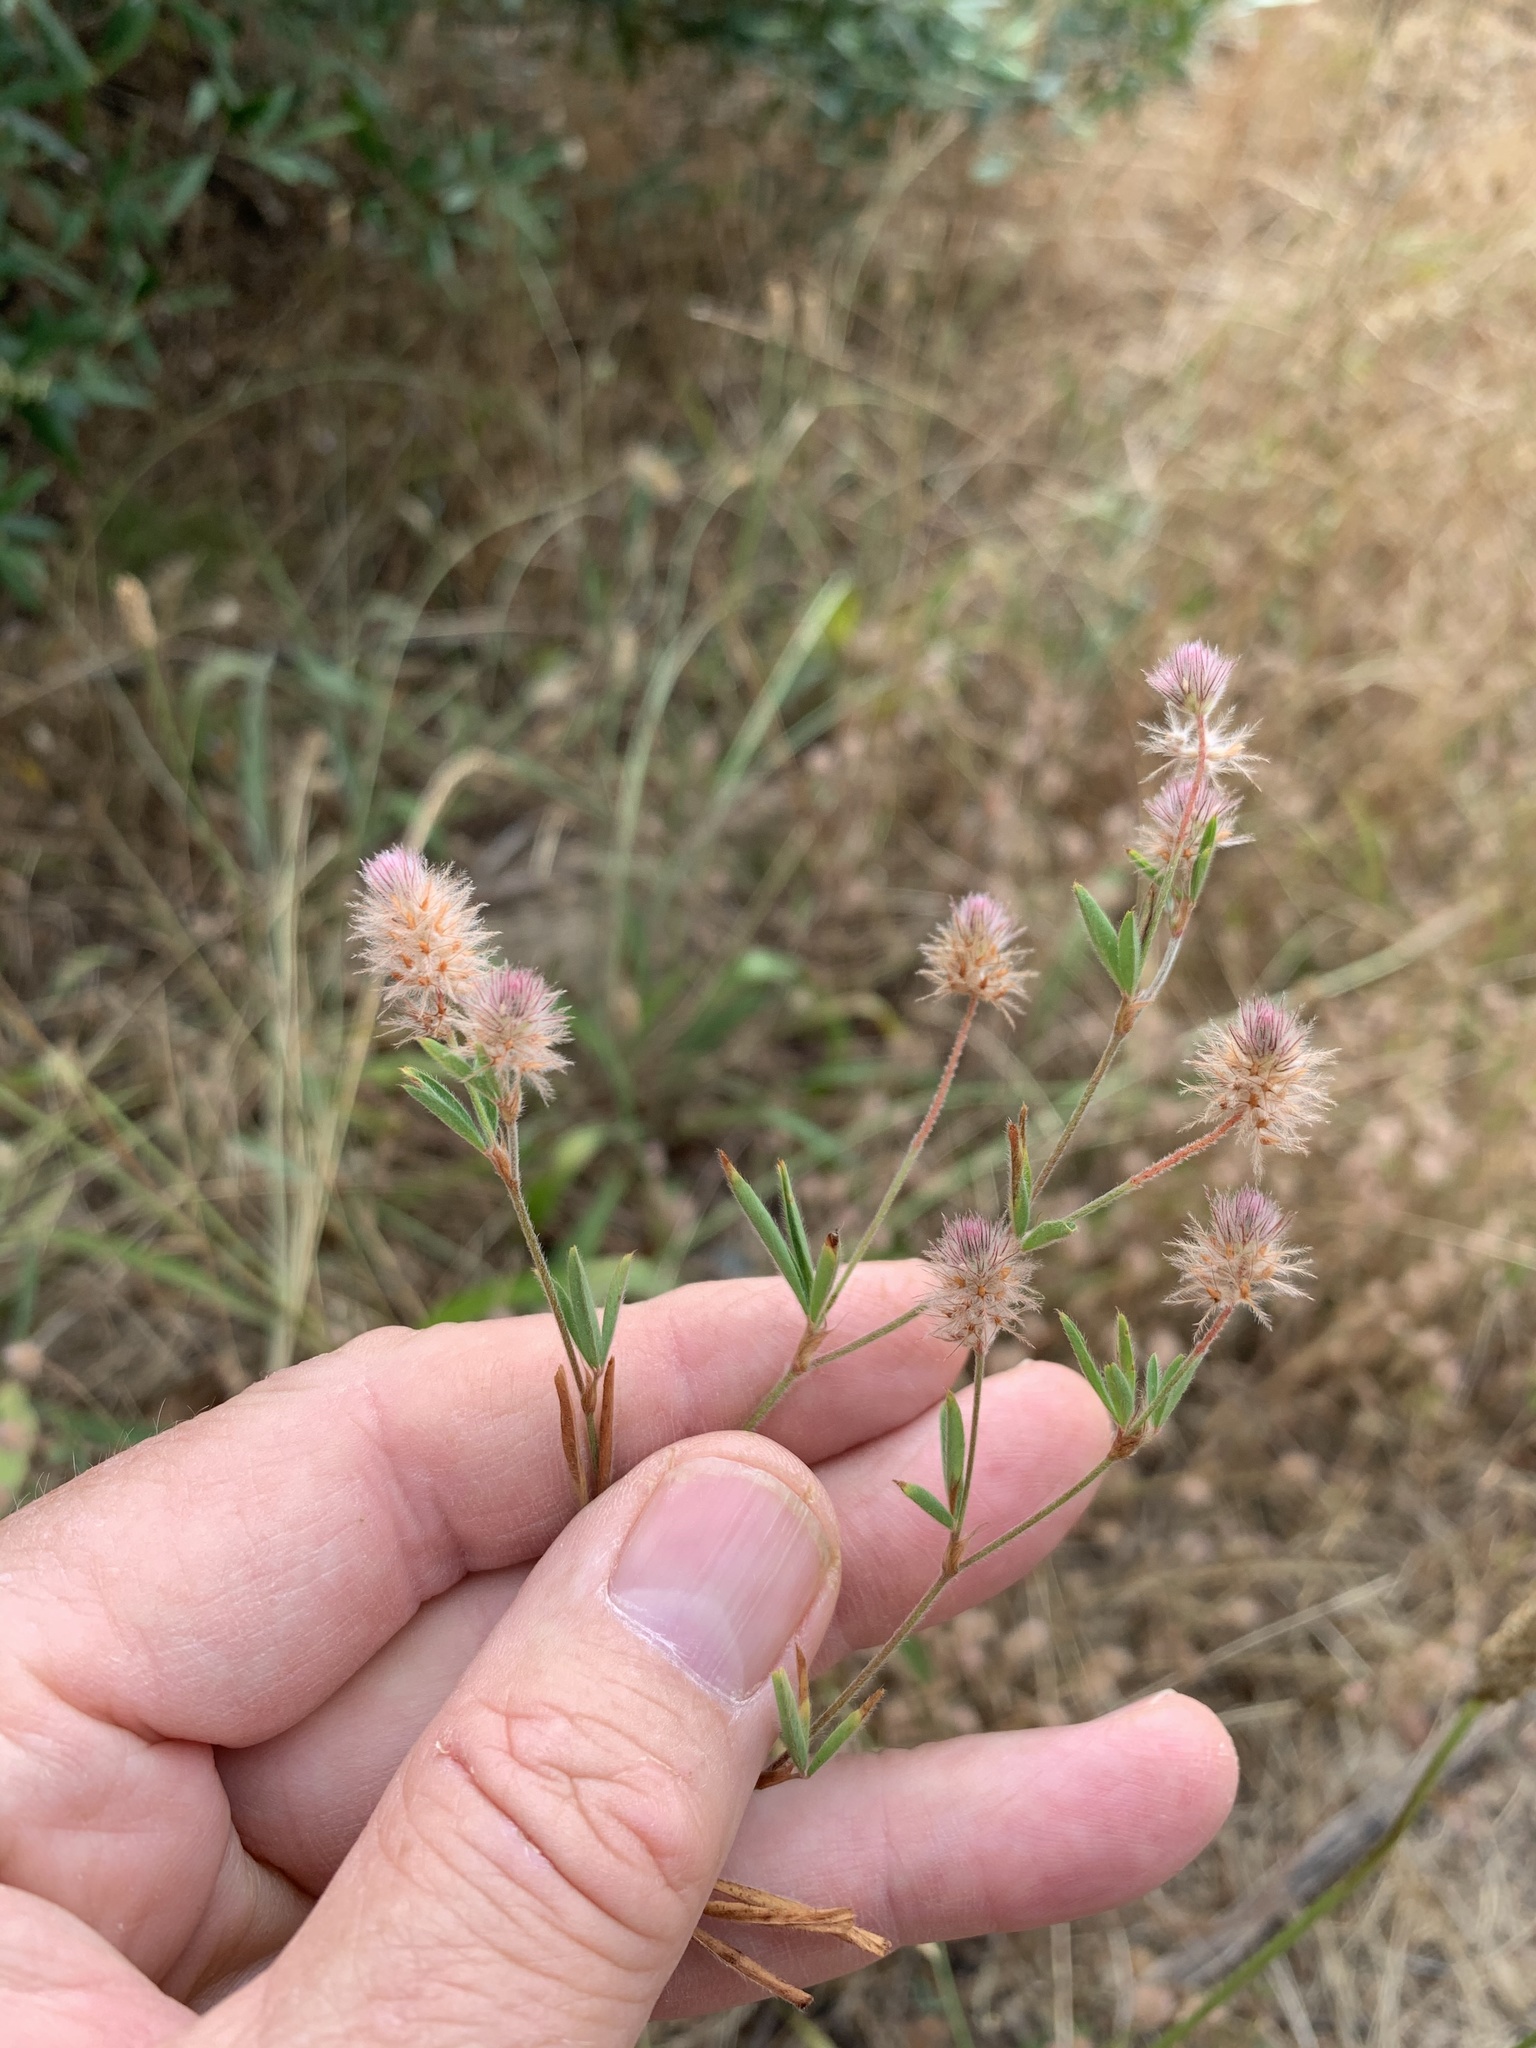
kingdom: Plantae
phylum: Tracheophyta
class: Magnoliopsida
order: Fabales
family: Fabaceae
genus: Trifolium
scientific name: Trifolium arvense
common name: Hare's-foot clover
